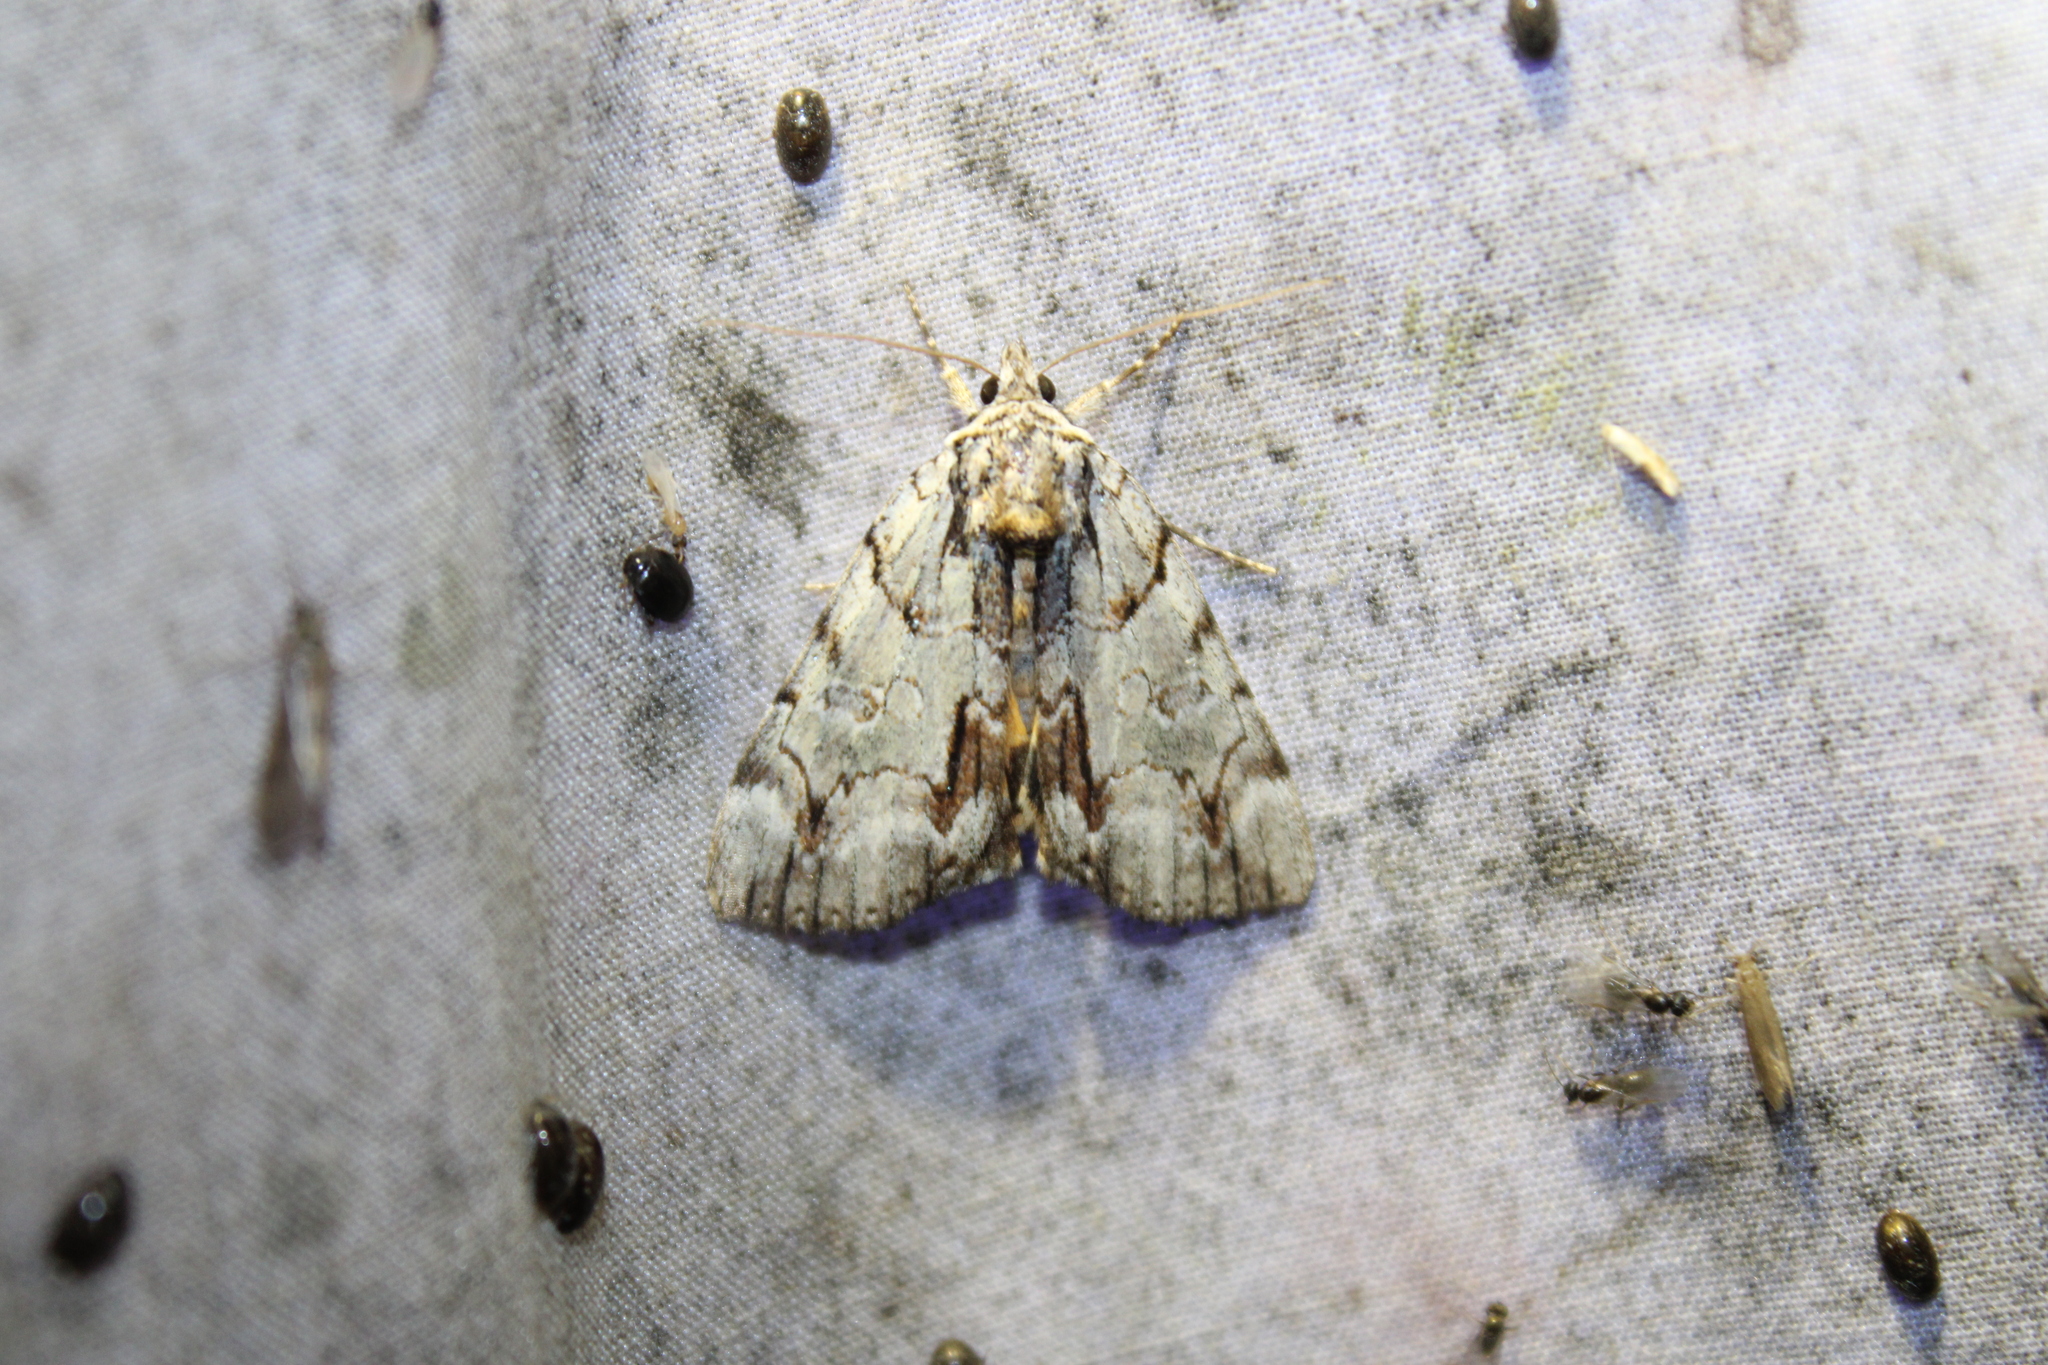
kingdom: Animalia
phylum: Arthropoda
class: Insecta
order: Lepidoptera
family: Erebidae
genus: Catocala
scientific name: Catocala praeclara
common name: Praeclara underwing
